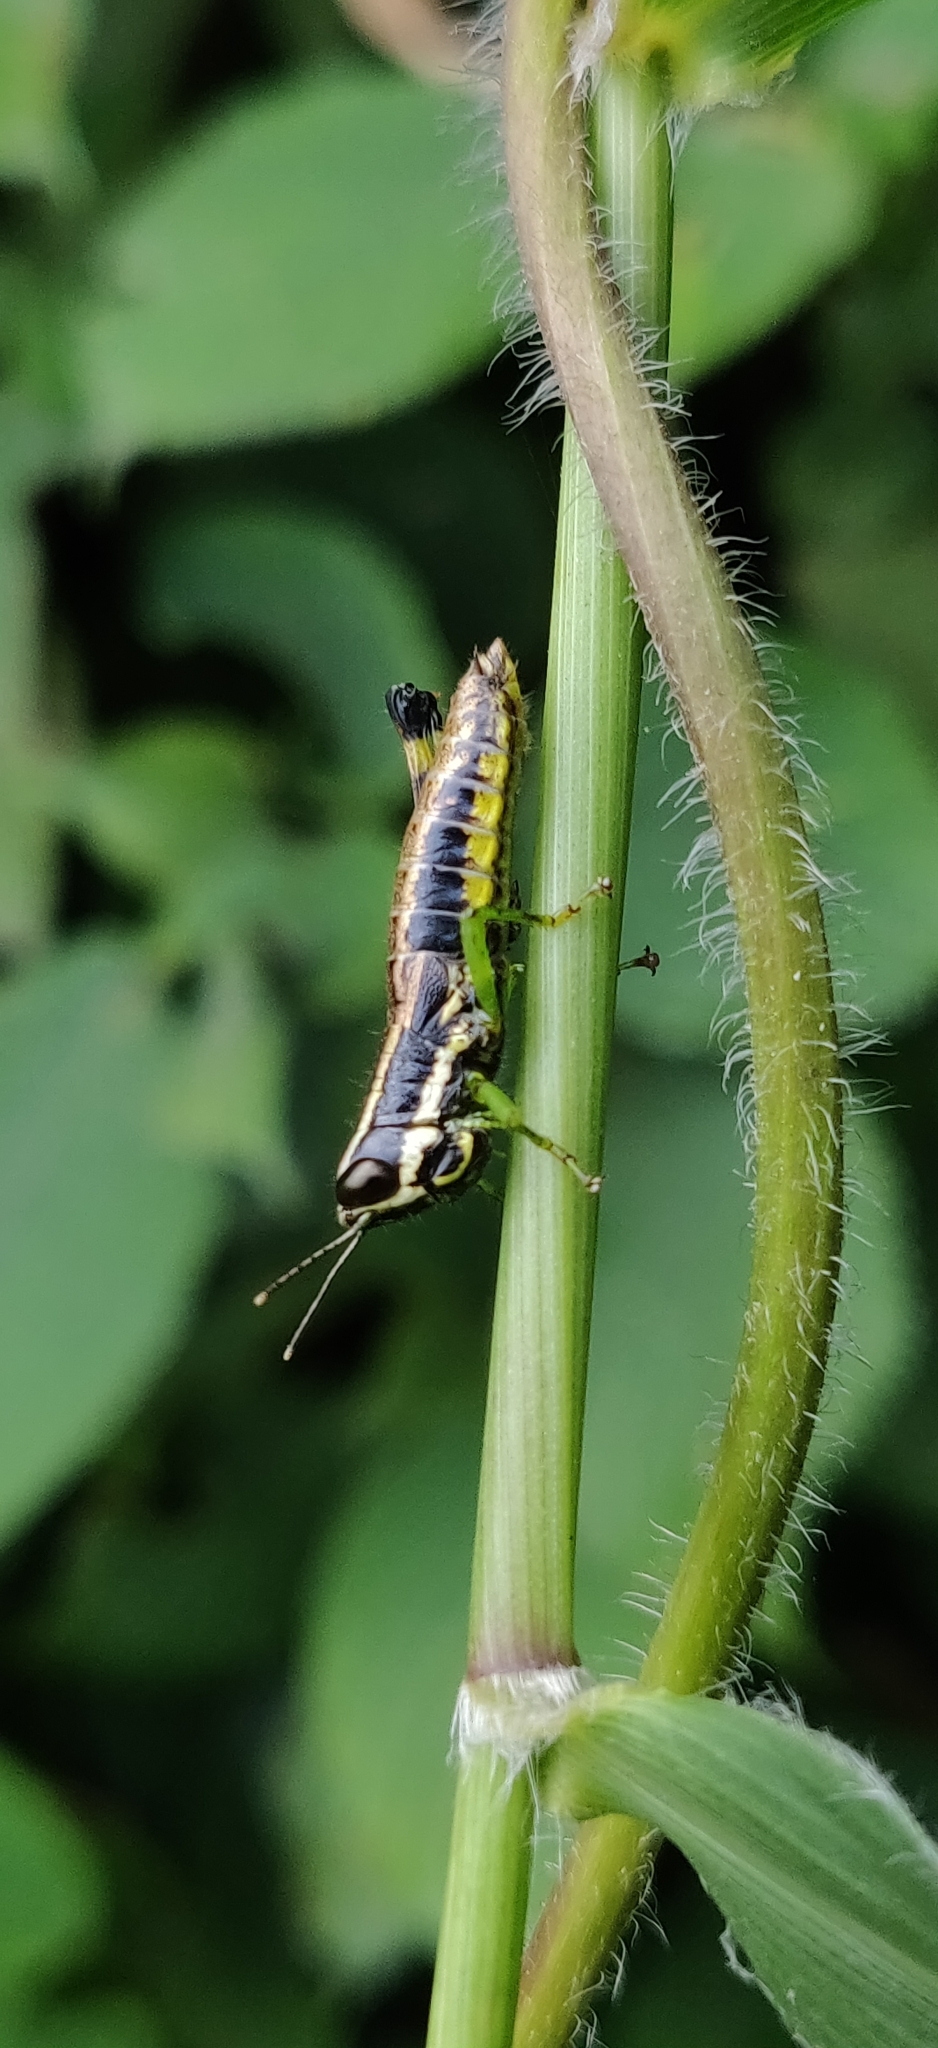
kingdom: Animalia
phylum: Arthropoda
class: Insecta
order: Orthoptera
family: Acrididae
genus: Chitaura
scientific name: Chitaura indica
